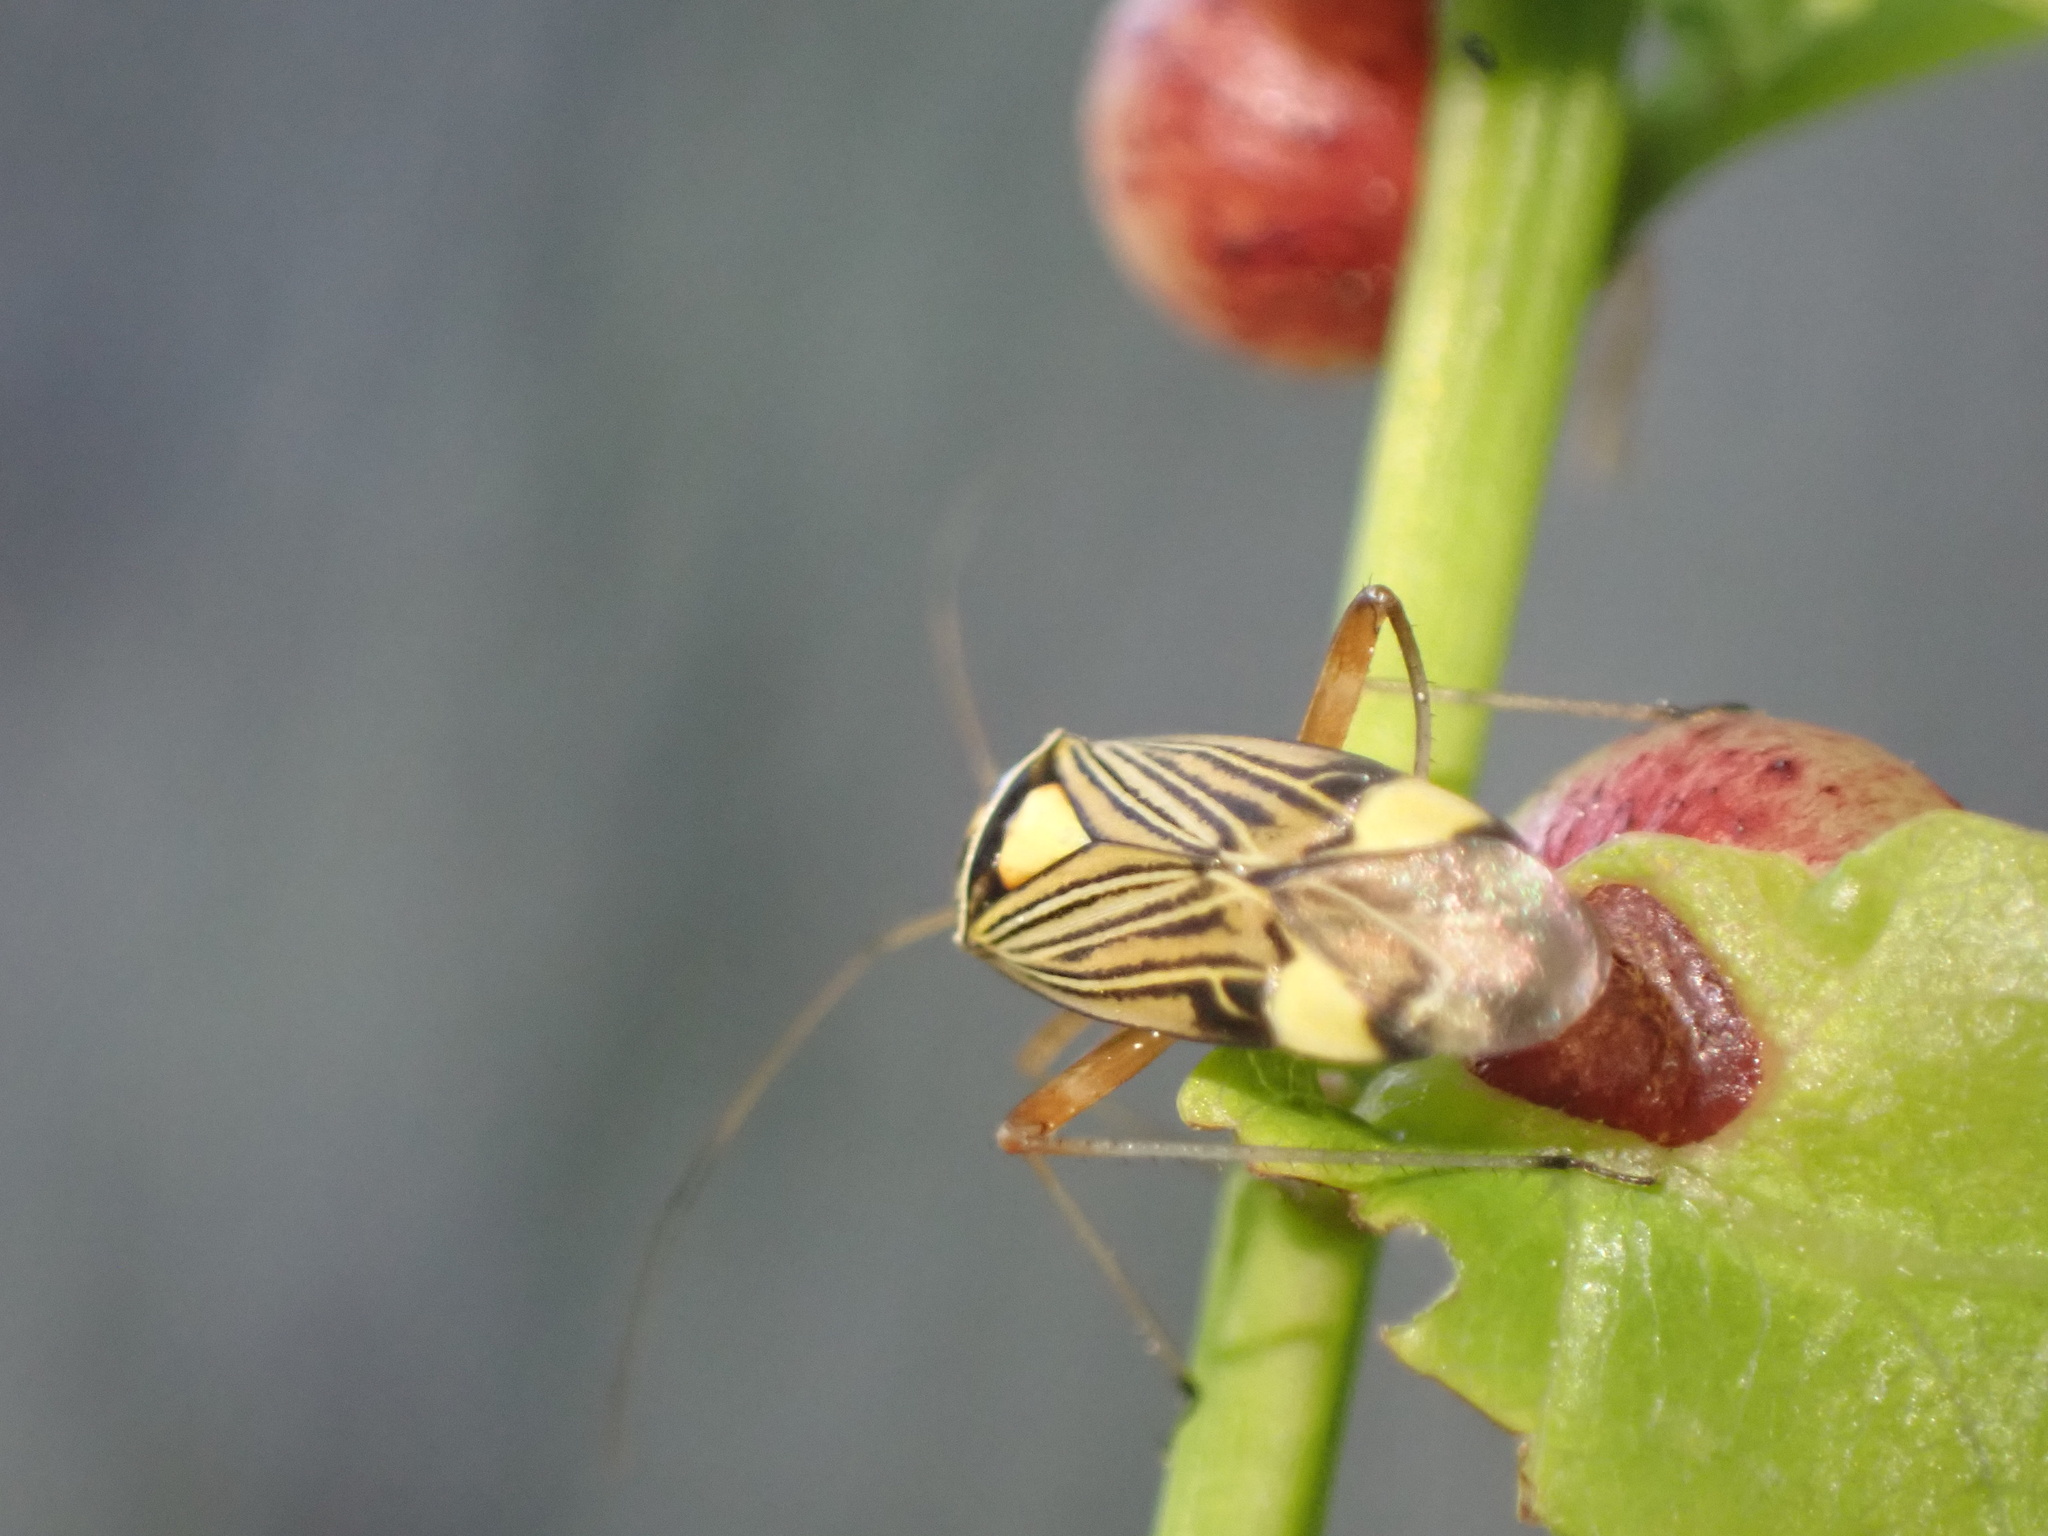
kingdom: Animalia
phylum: Arthropoda
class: Insecta
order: Hemiptera
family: Miridae
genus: Rhabdomiris
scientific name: Rhabdomiris striatellus
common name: Plant bug
